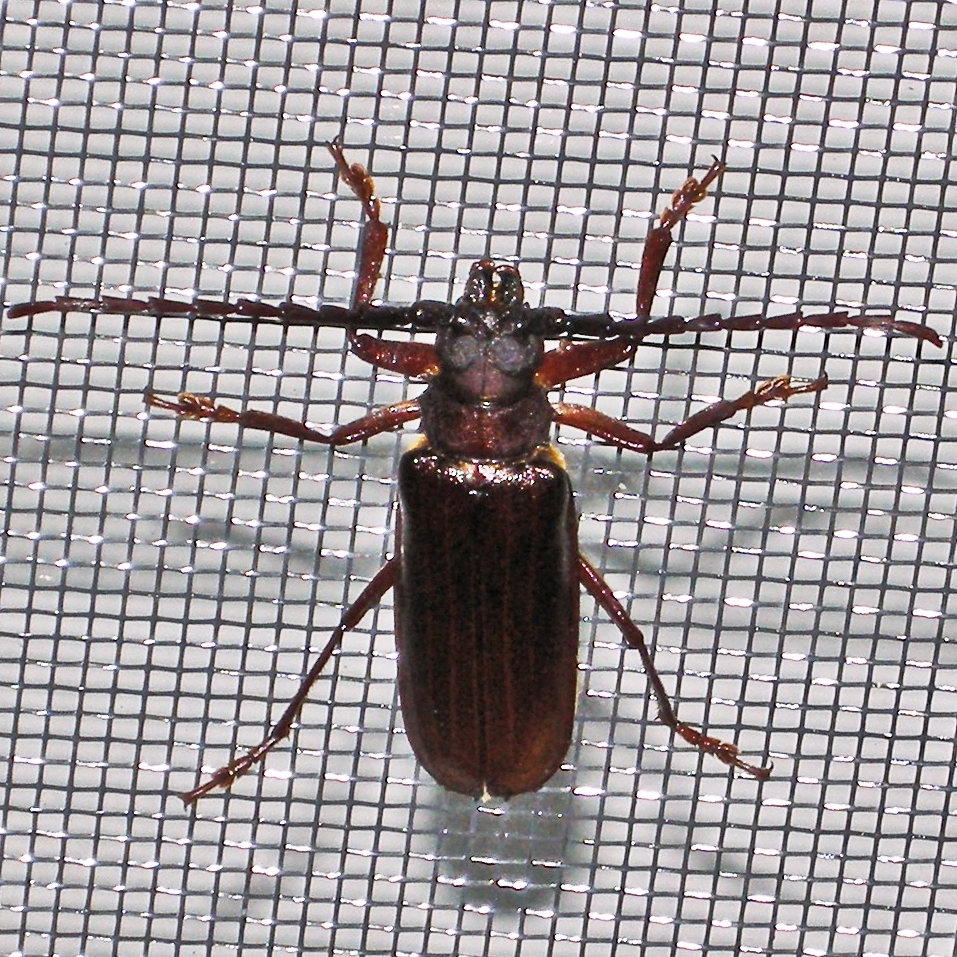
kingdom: Animalia
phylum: Arthropoda
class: Insecta
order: Coleoptera
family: Cerambycidae
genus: Orthosoma
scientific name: Orthosoma brunneum
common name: Brown prionid beetle
